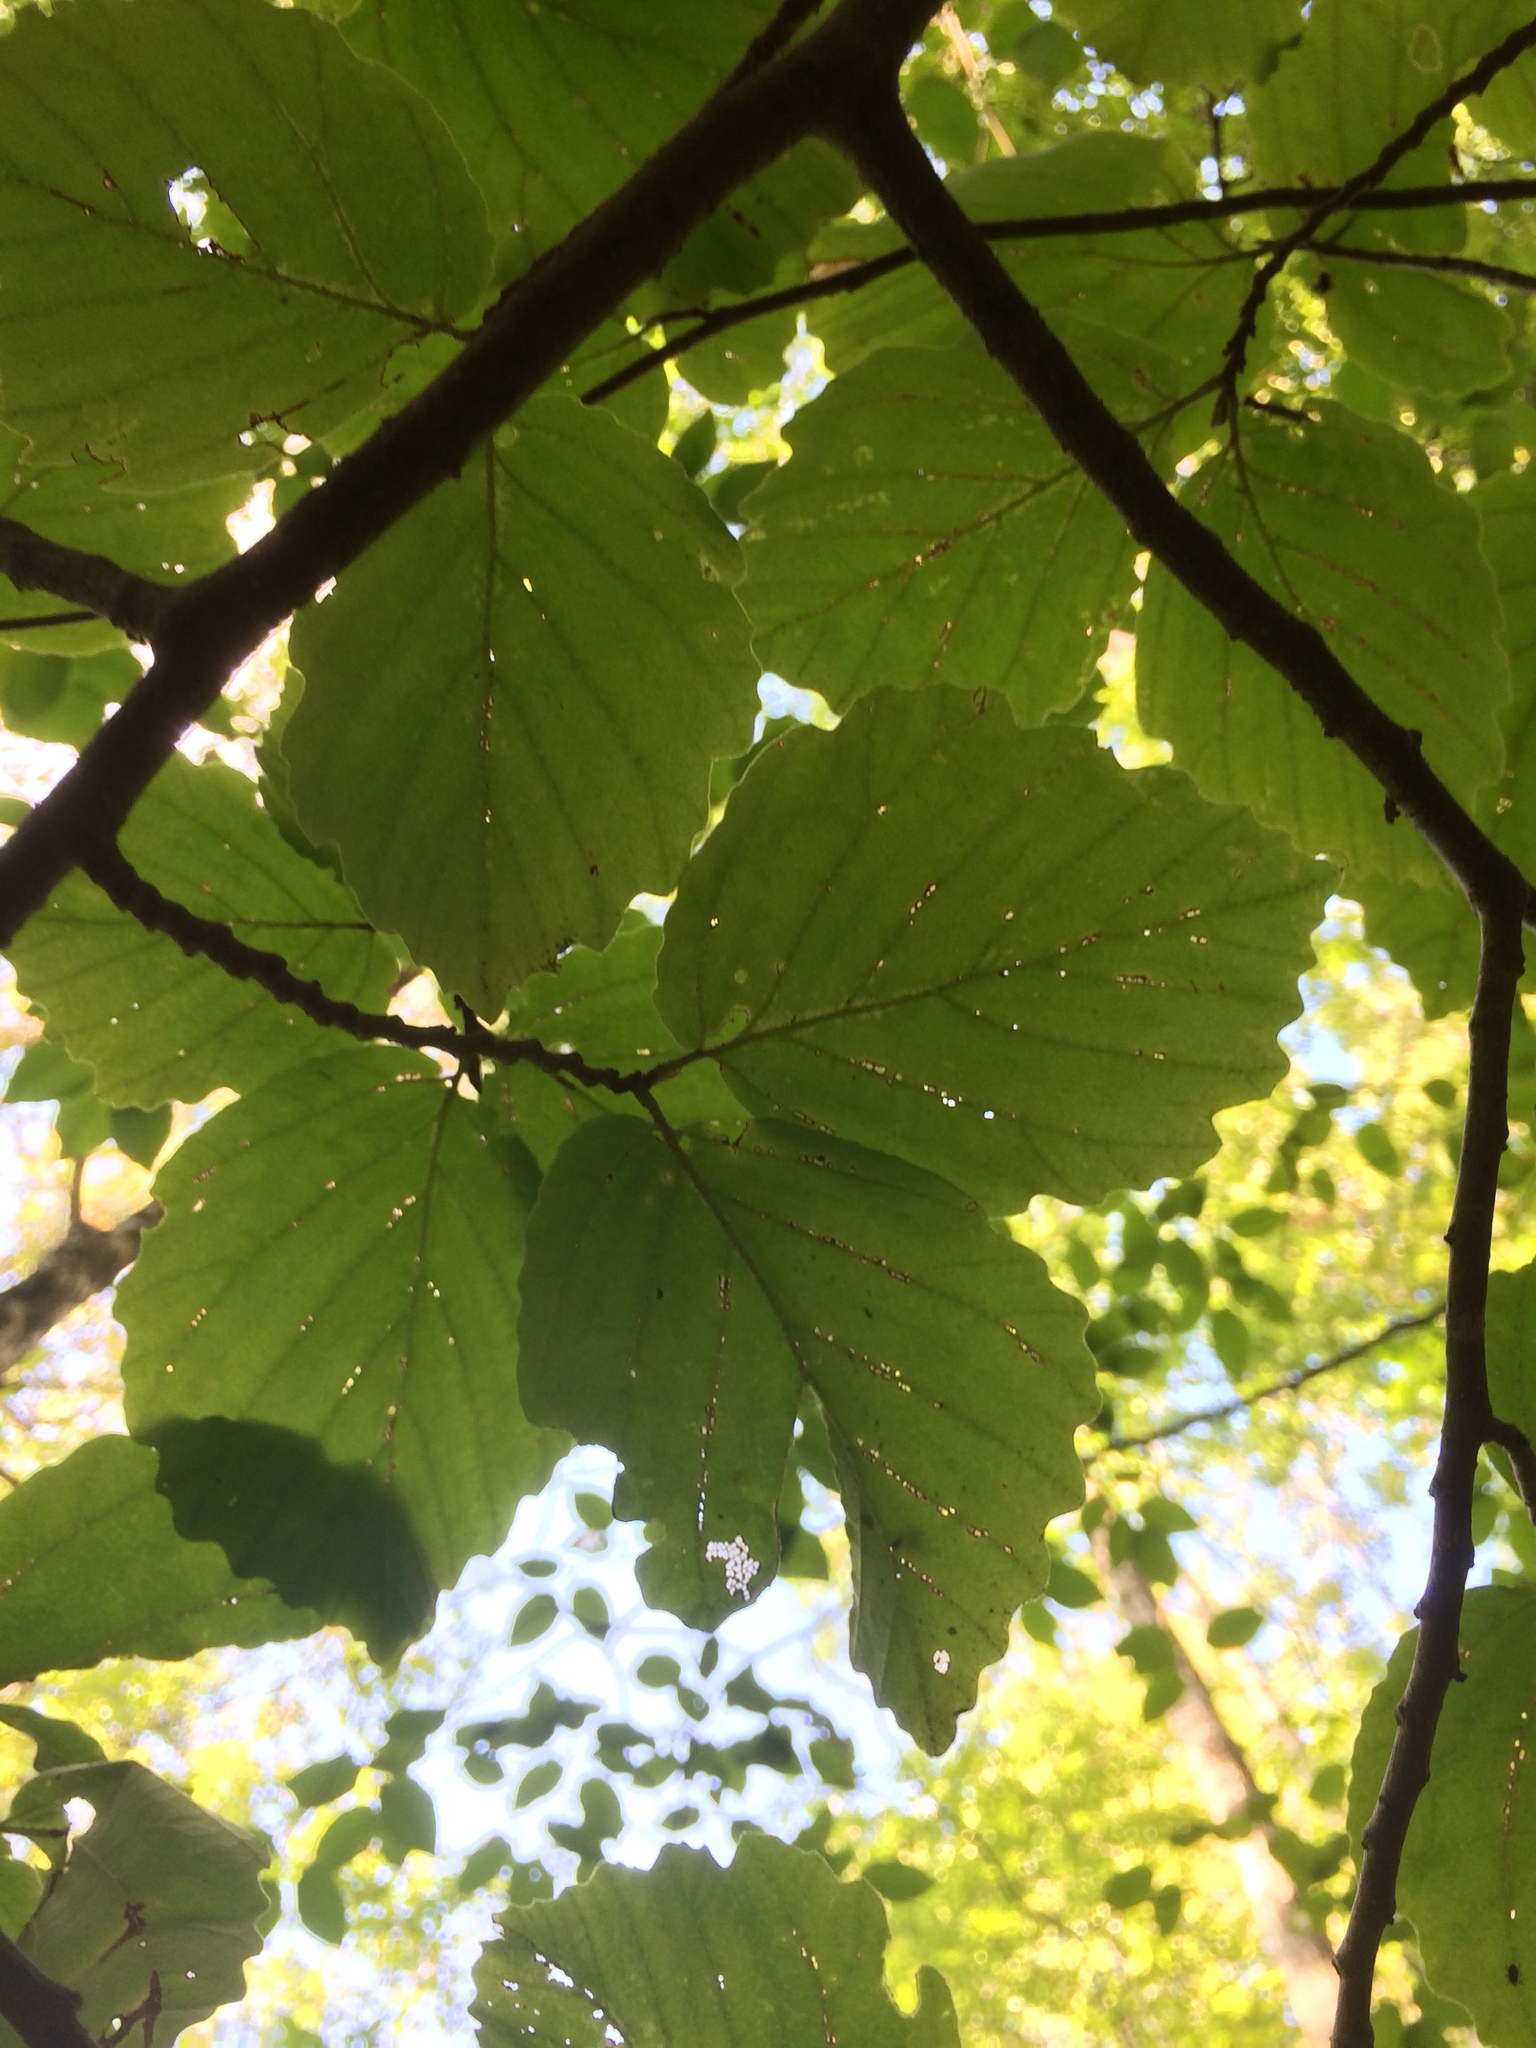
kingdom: Plantae
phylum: Tracheophyta
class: Magnoliopsida
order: Saxifragales
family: Hamamelidaceae
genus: Hamamelis
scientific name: Hamamelis virginiana
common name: Witch-hazel
